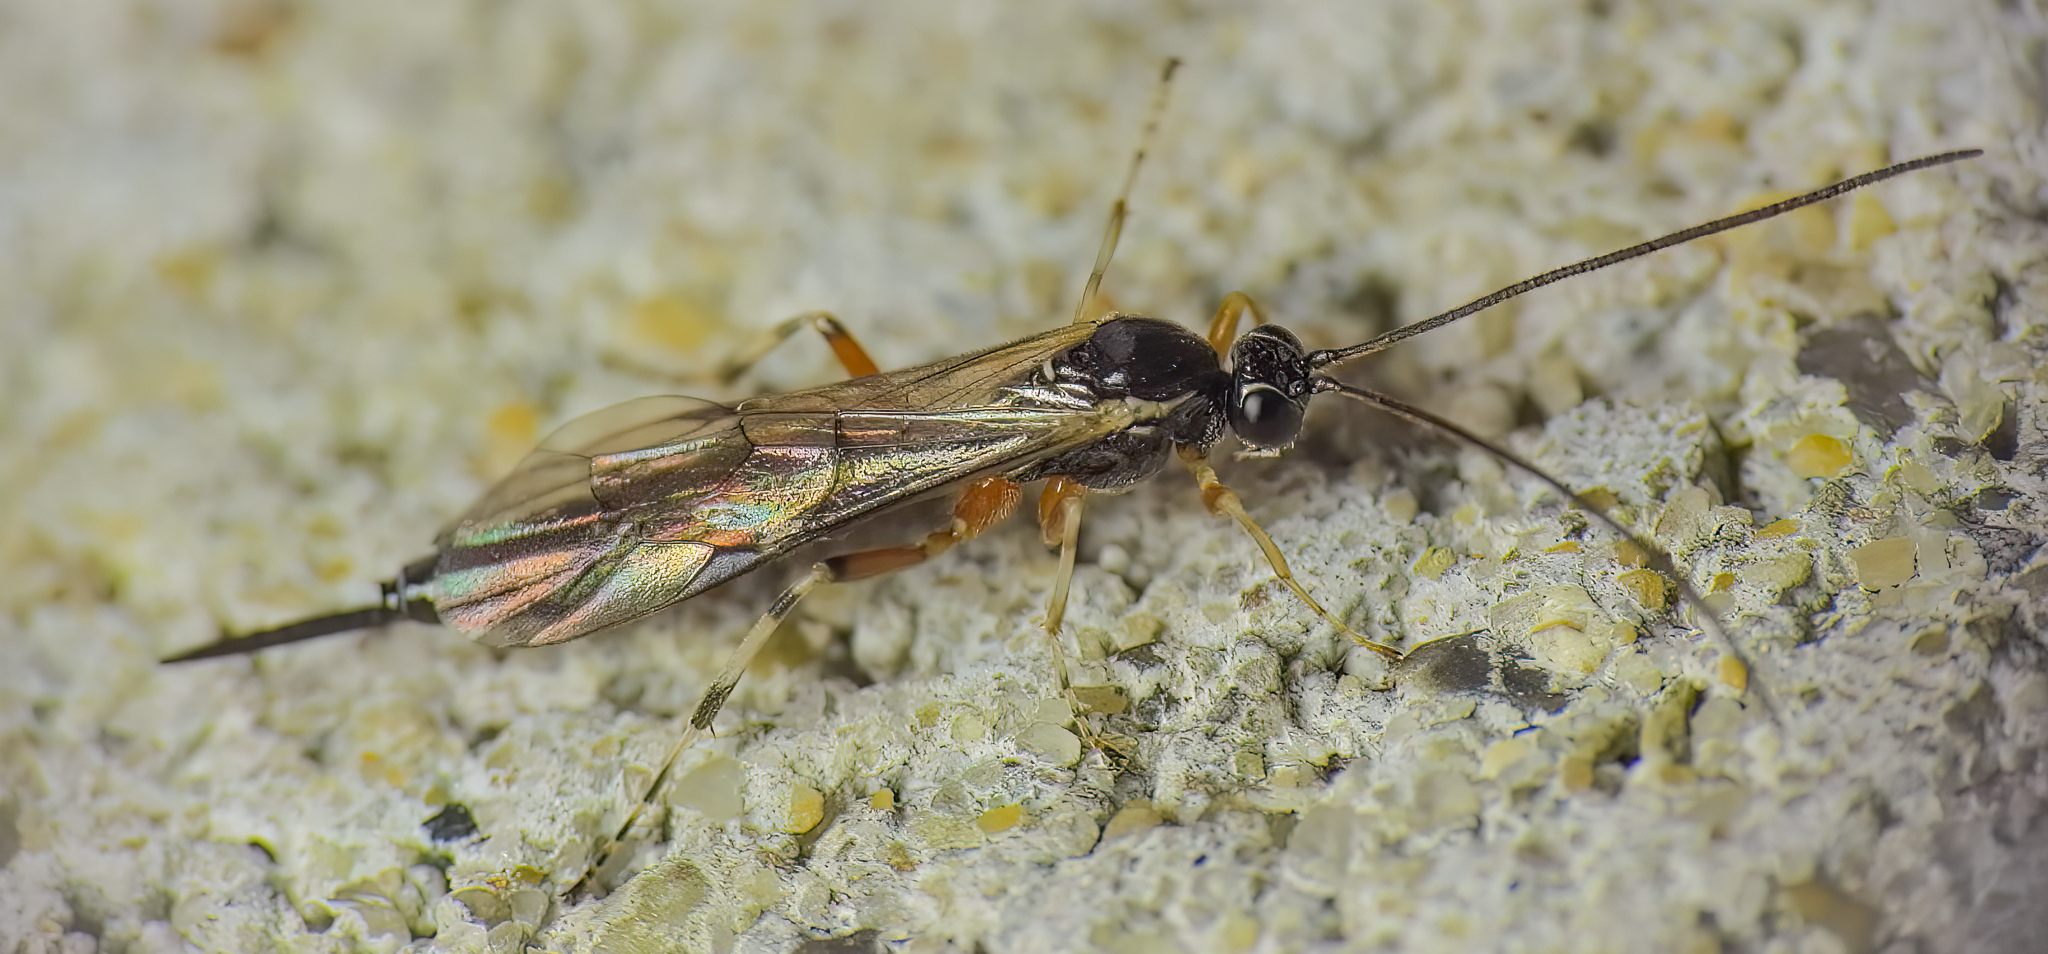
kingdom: Animalia
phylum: Arthropoda
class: Insecta
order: Hymenoptera
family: Ichneumonidae
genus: Tromatobia
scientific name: Tromatobia ovivora
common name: Parasitoid wasp
